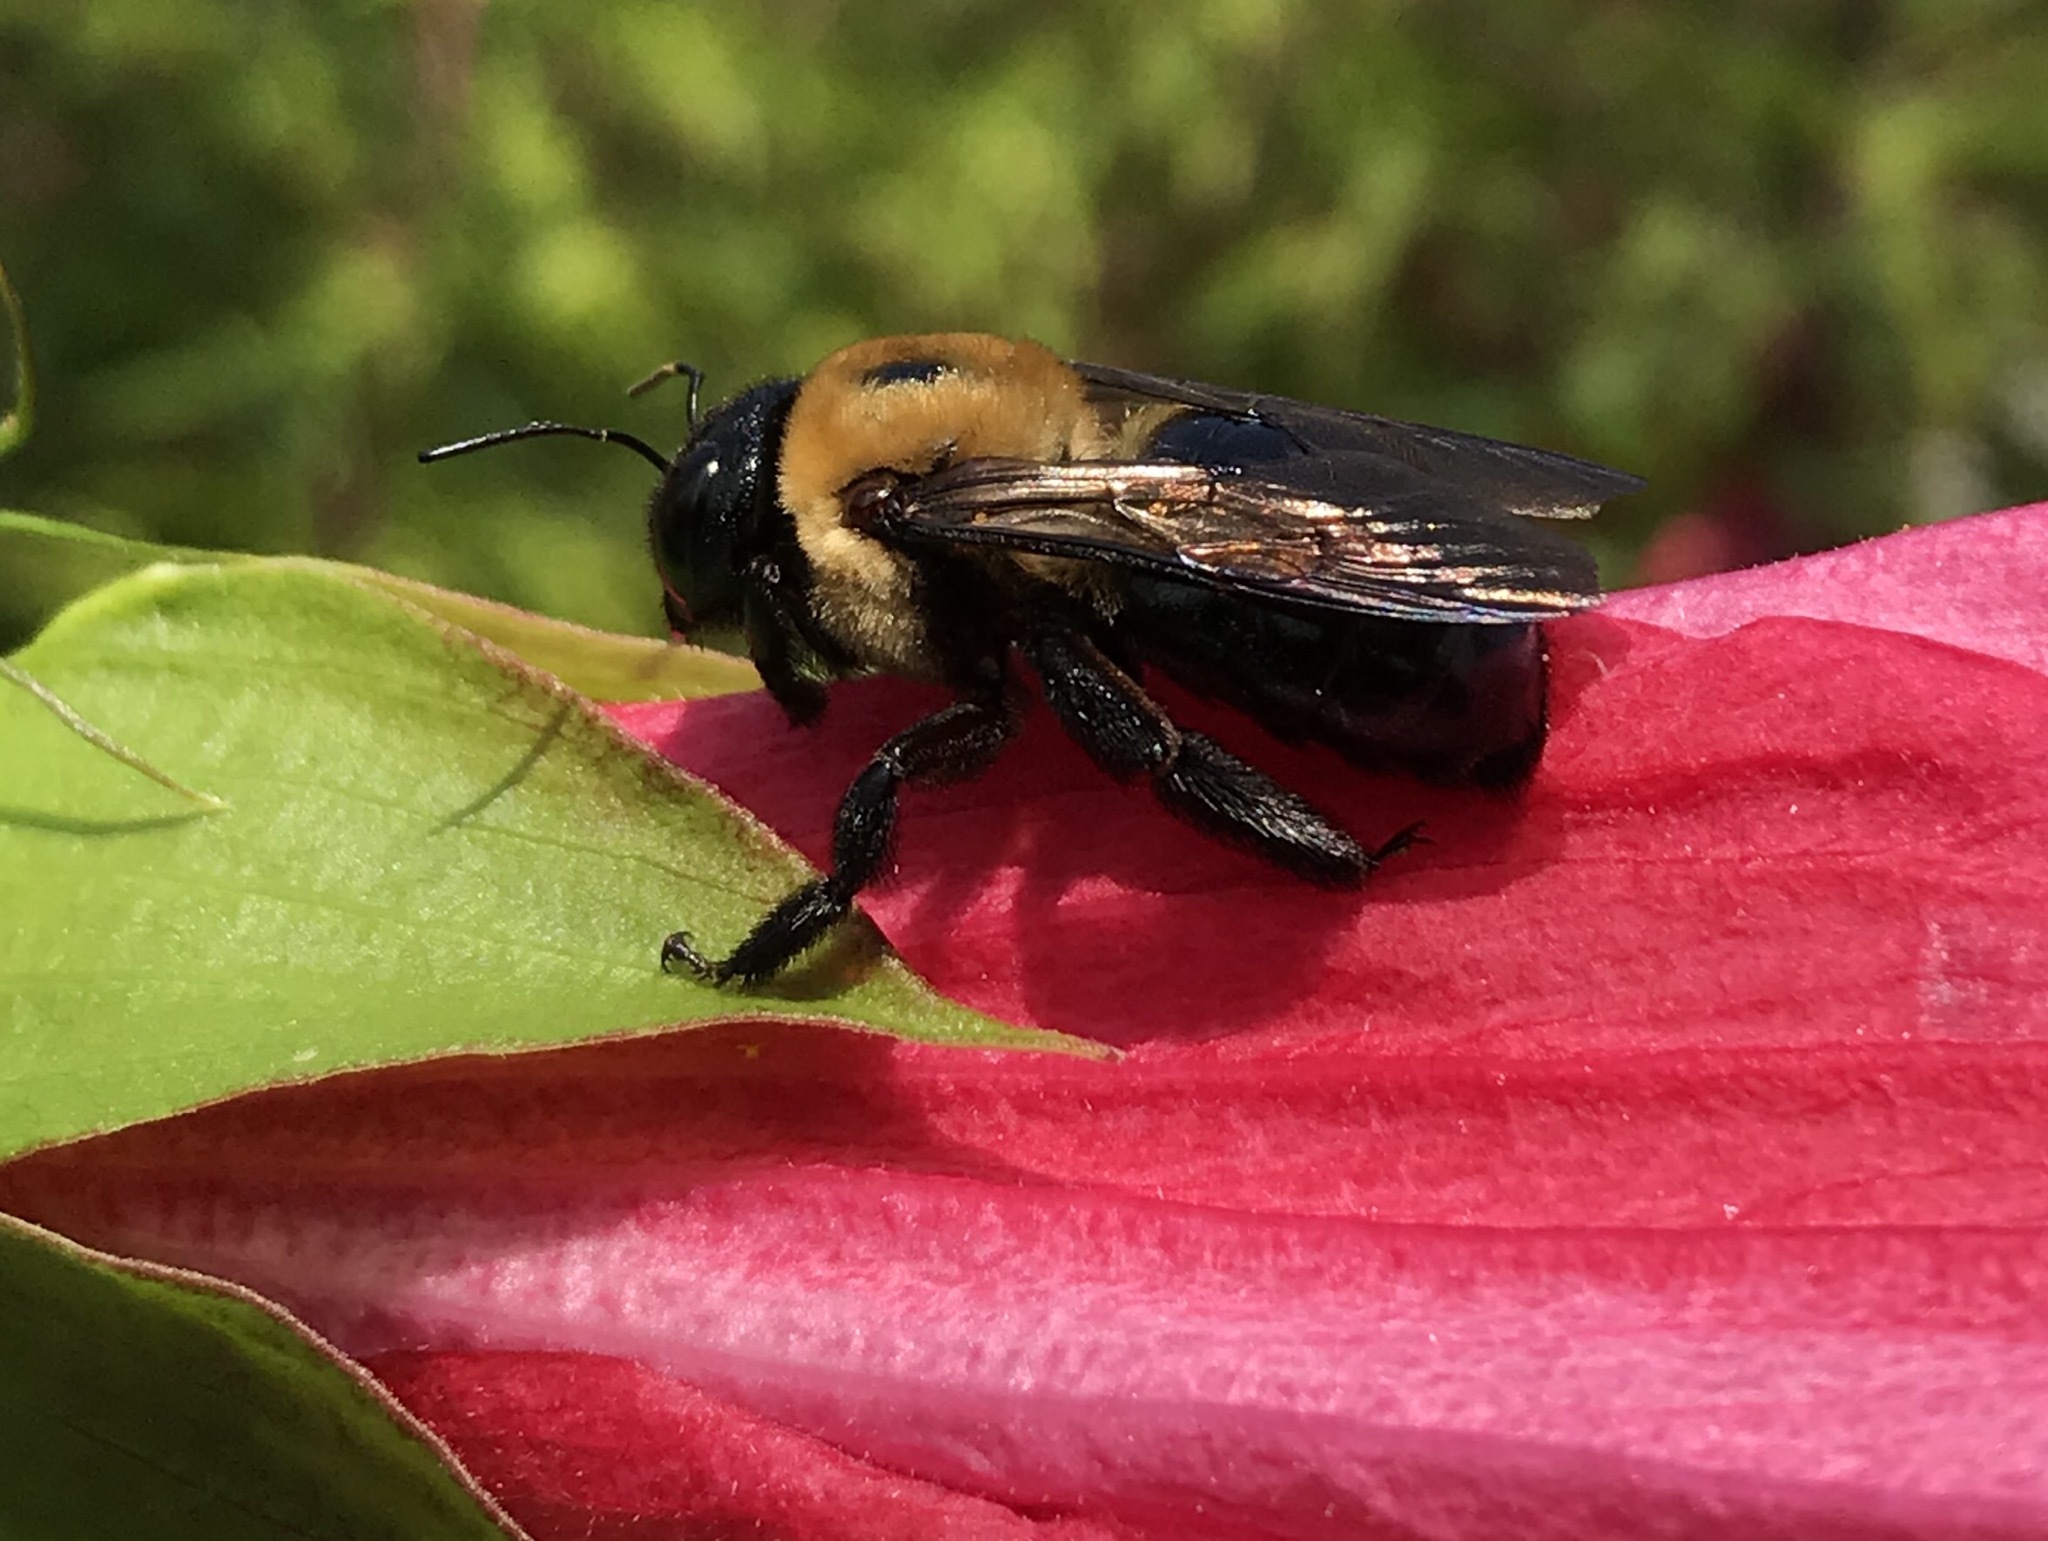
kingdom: Animalia
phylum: Arthropoda
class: Insecta
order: Hymenoptera
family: Apidae
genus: Xylocopa
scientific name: Xylocopa virginica
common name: Carpenter bee
